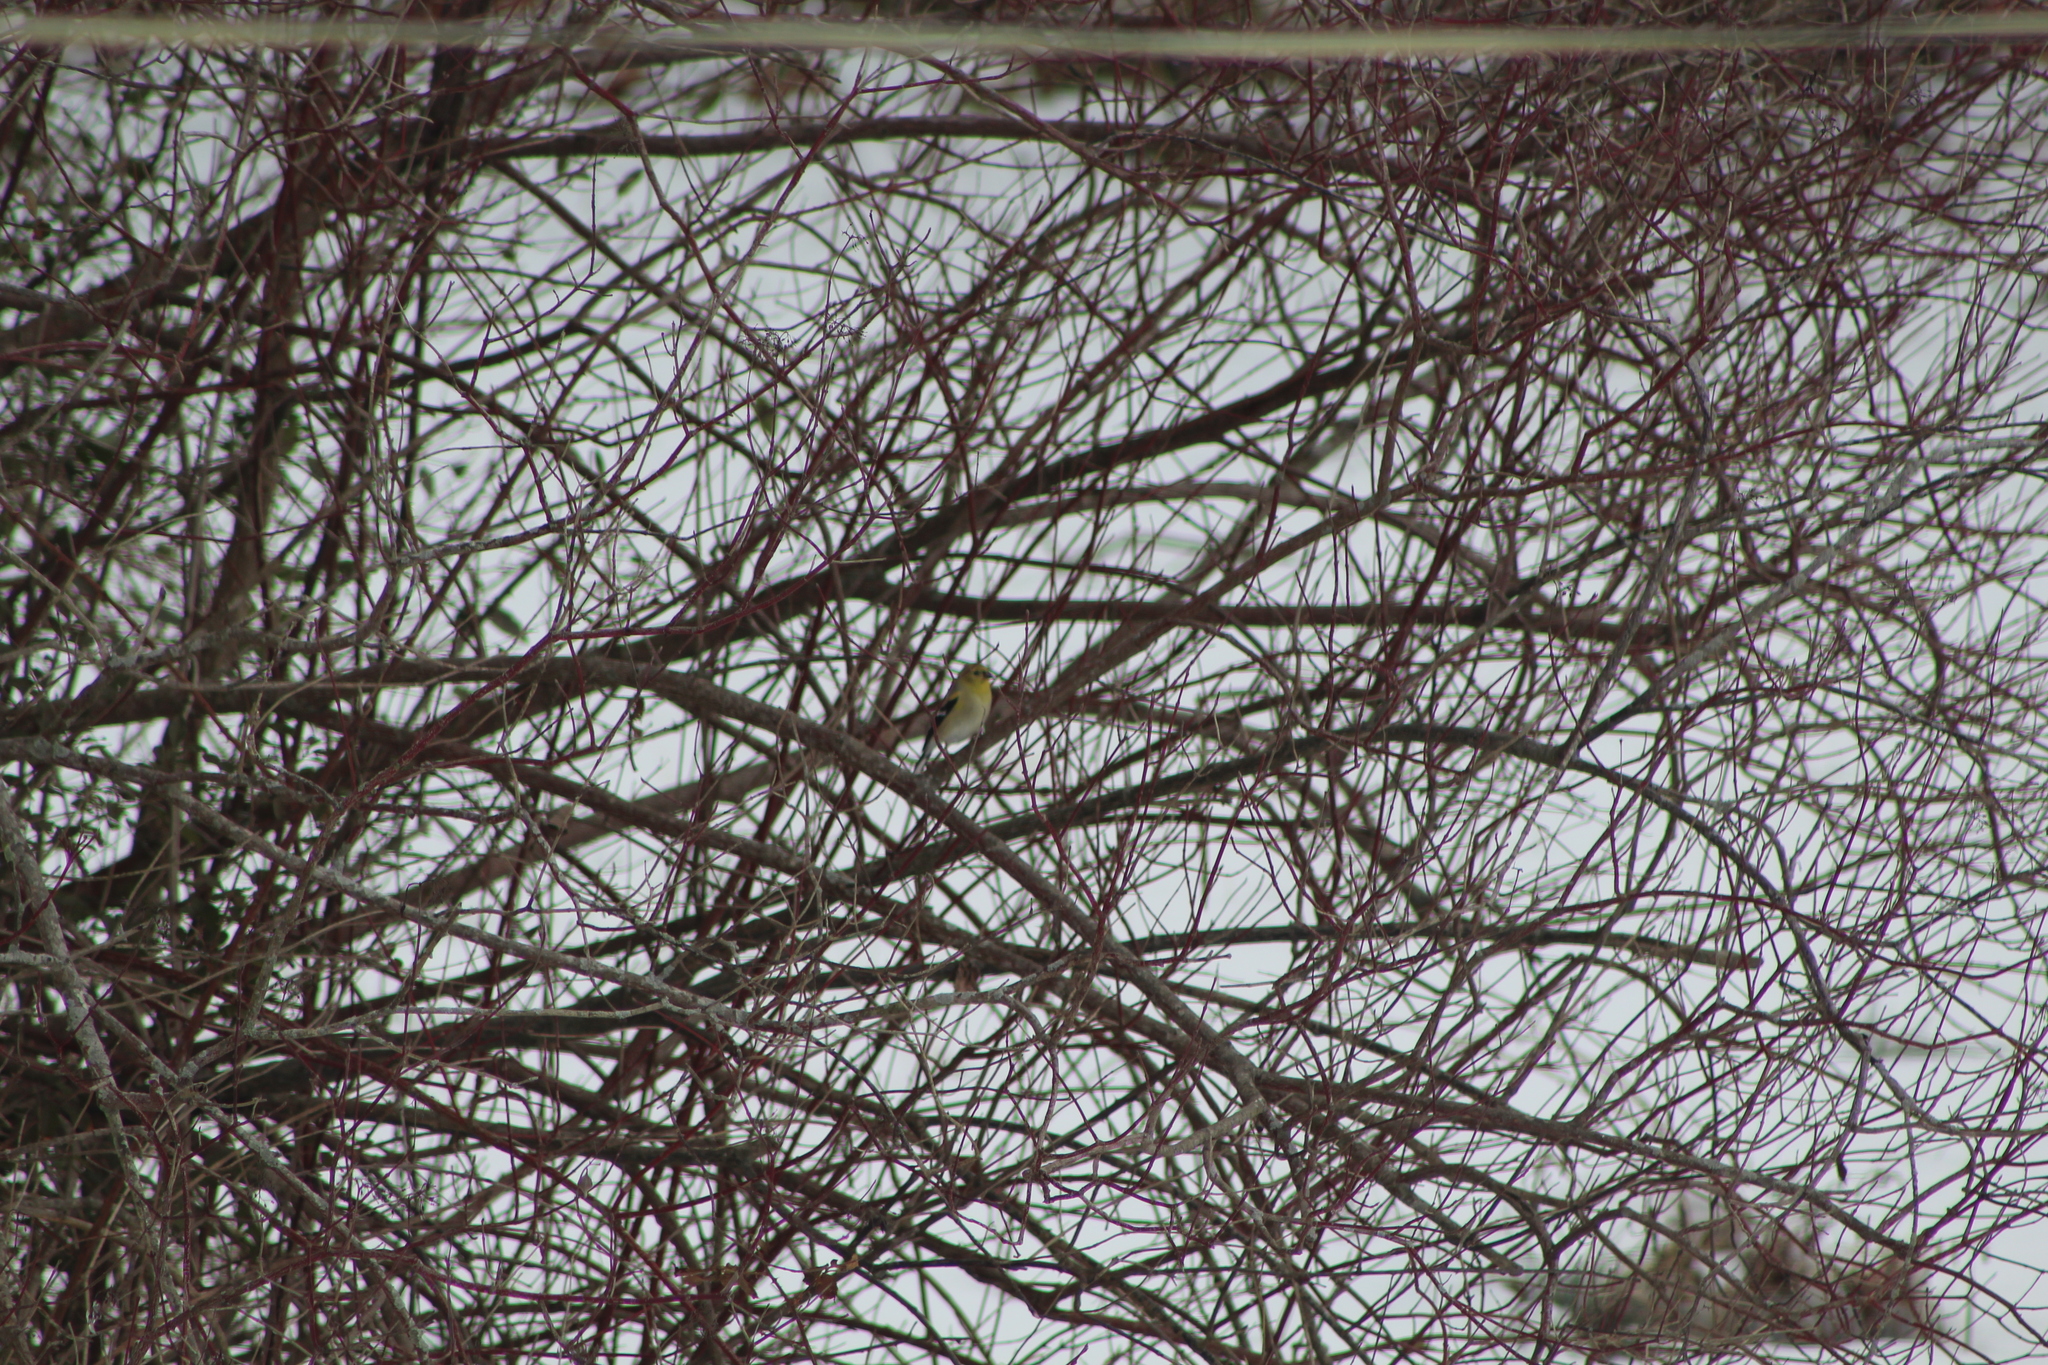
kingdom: Animalia
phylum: Chordata
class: Aves
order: Passeriformes
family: Fringillidae
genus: Spinus
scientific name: Spinus tristis
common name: American goldfinch
